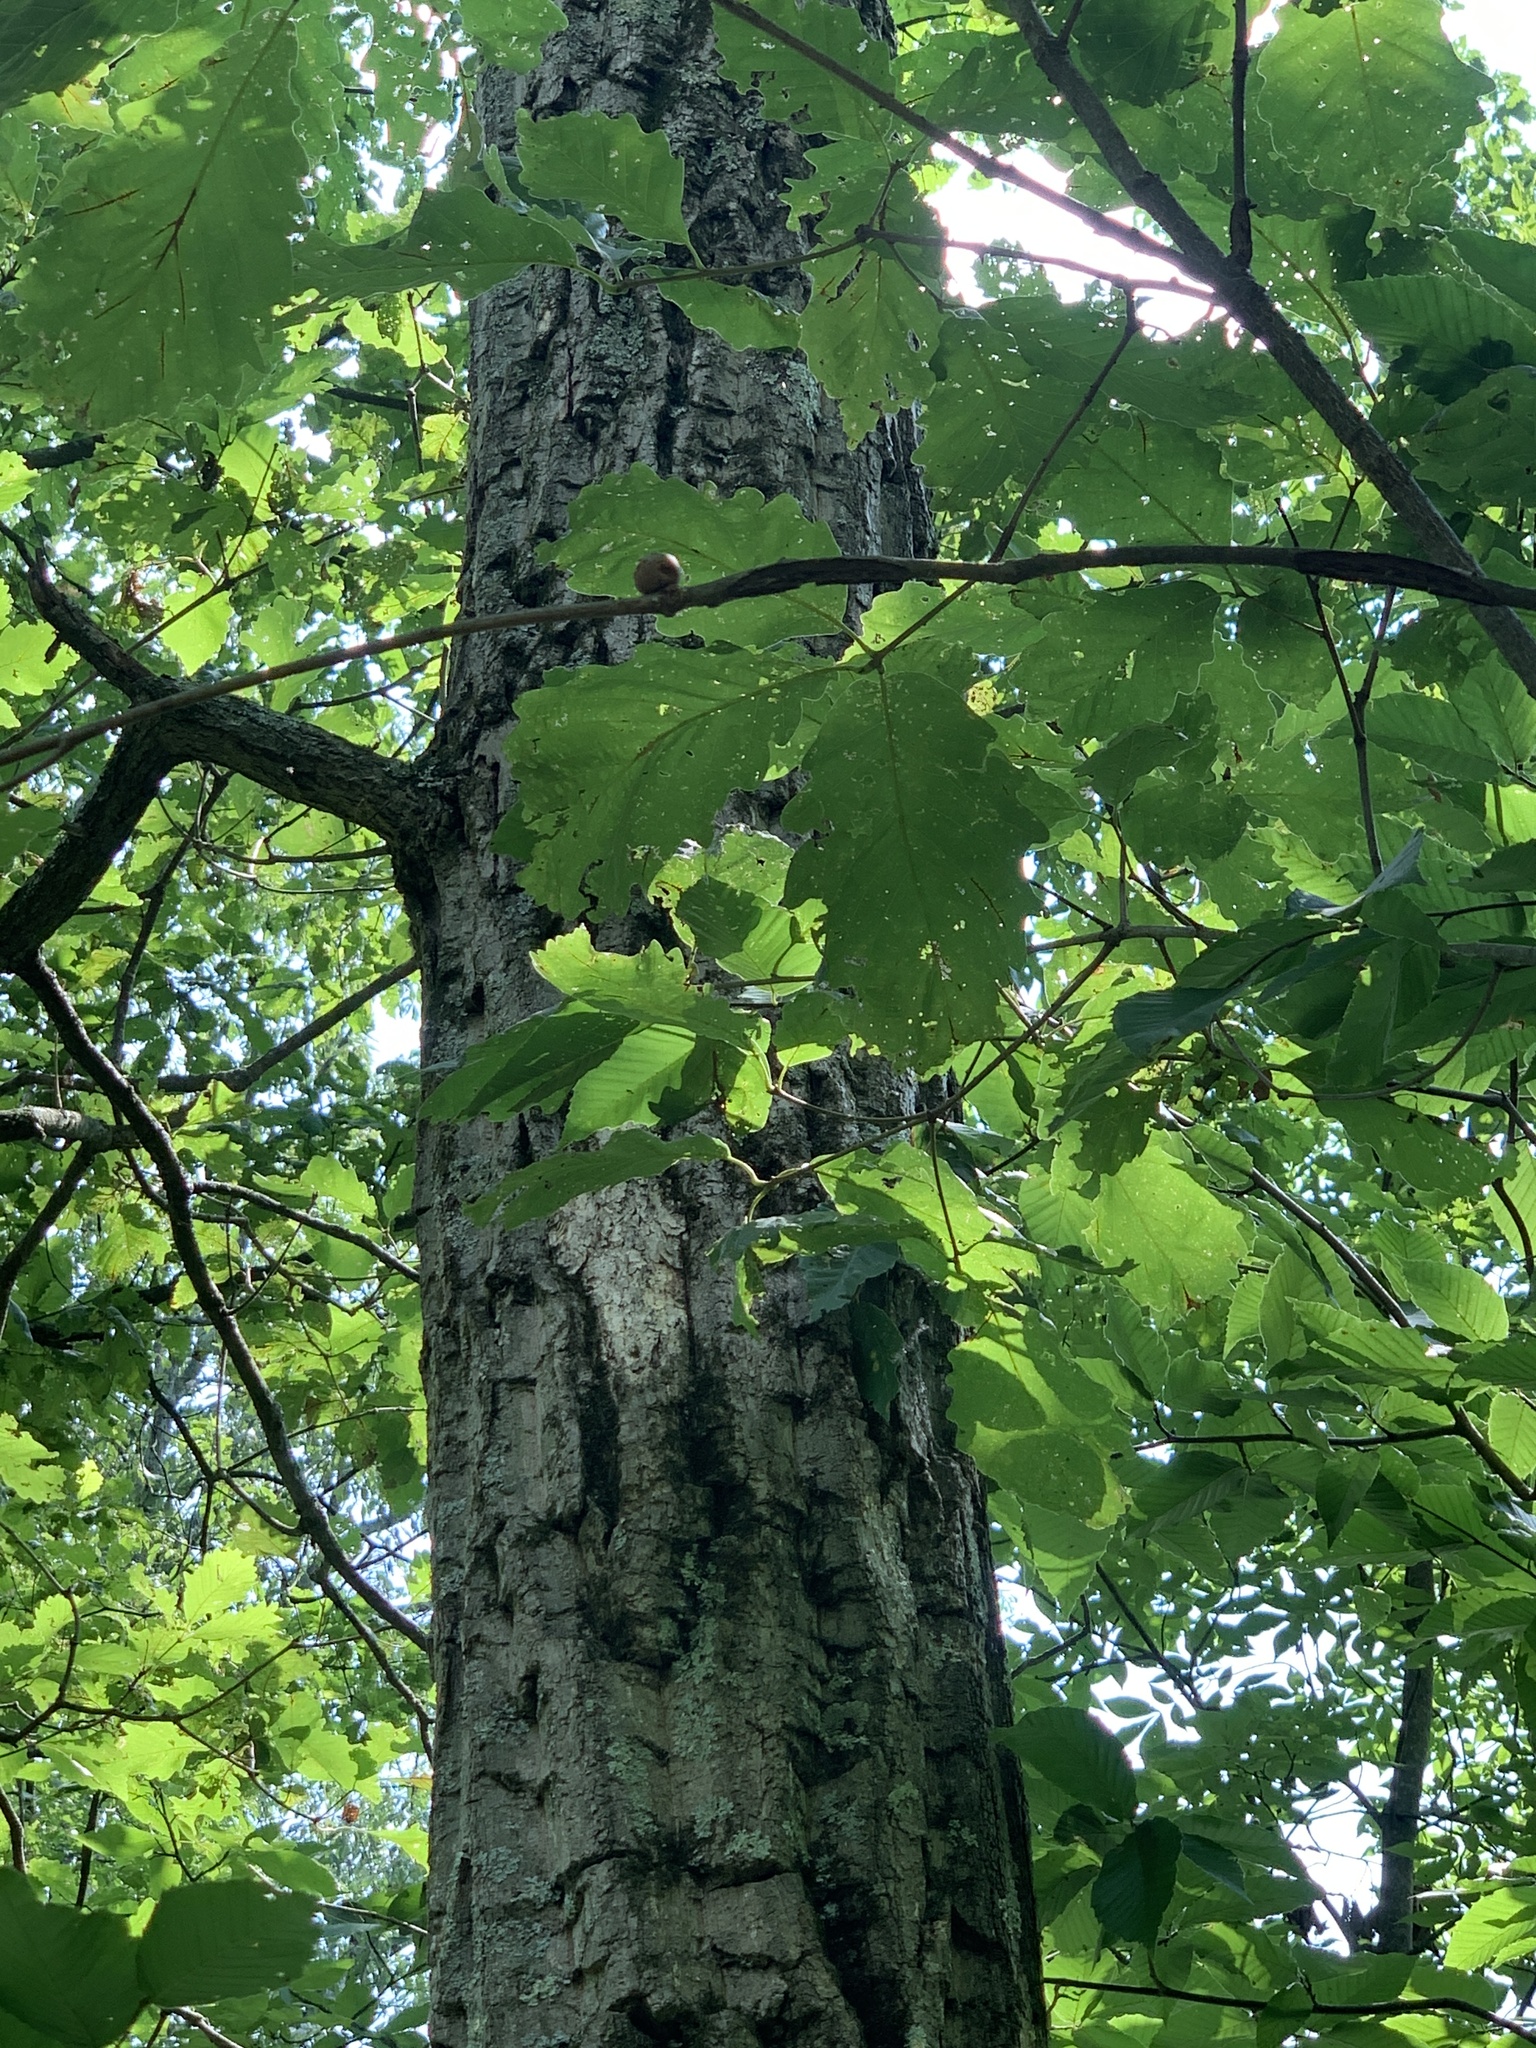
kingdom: Plantae
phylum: Tracheophyta
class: Magnoliopsida
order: Fagales
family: Fagaceae
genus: Quercus
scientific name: Quercus montana
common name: Chestnut oak
